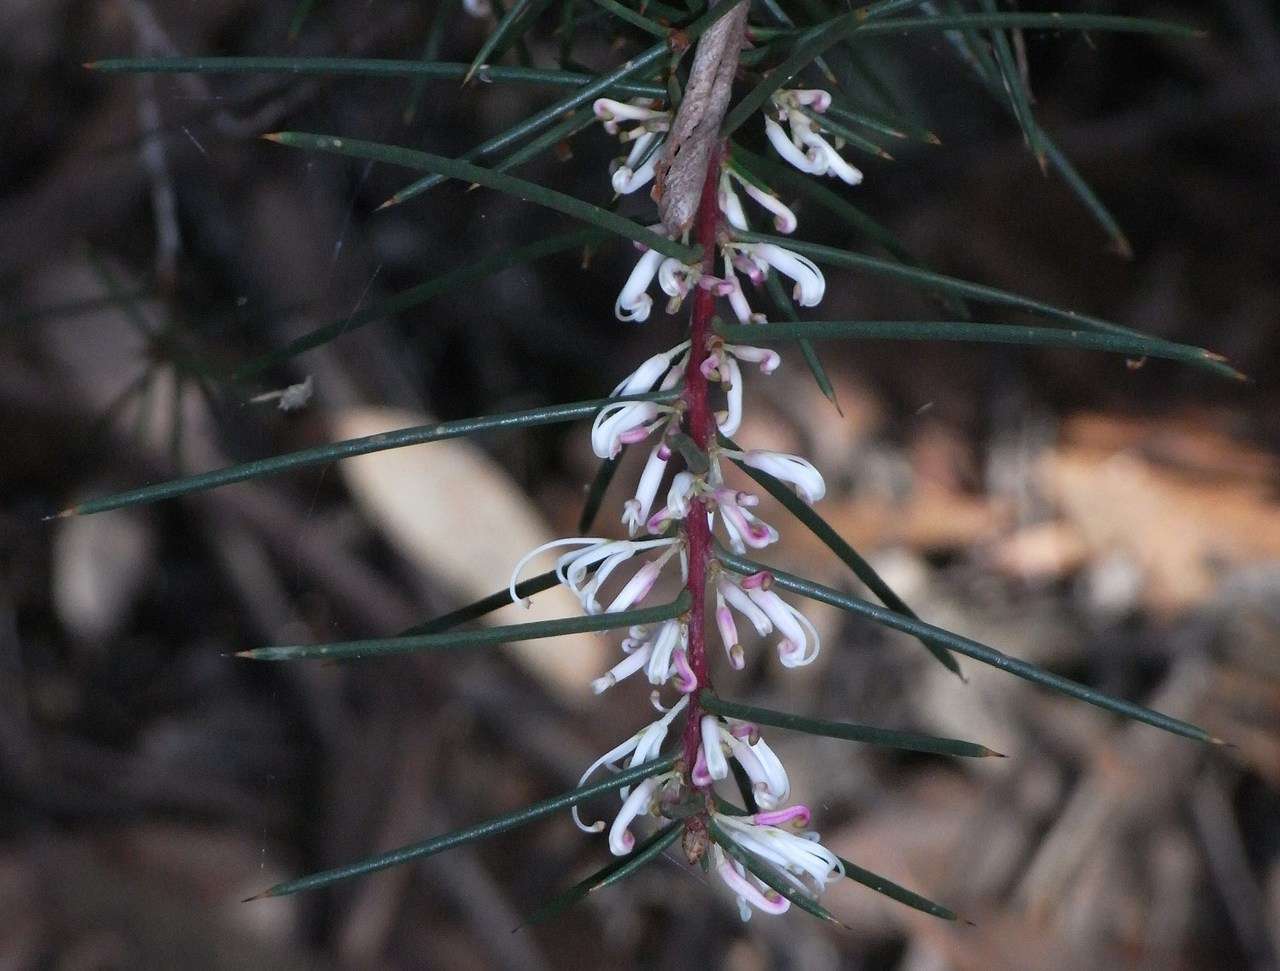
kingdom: Plantae
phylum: Tracheophyta
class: Magnoliopsida
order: Proteales
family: Proteaceae
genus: Hakea
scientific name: Hakea decurrens
